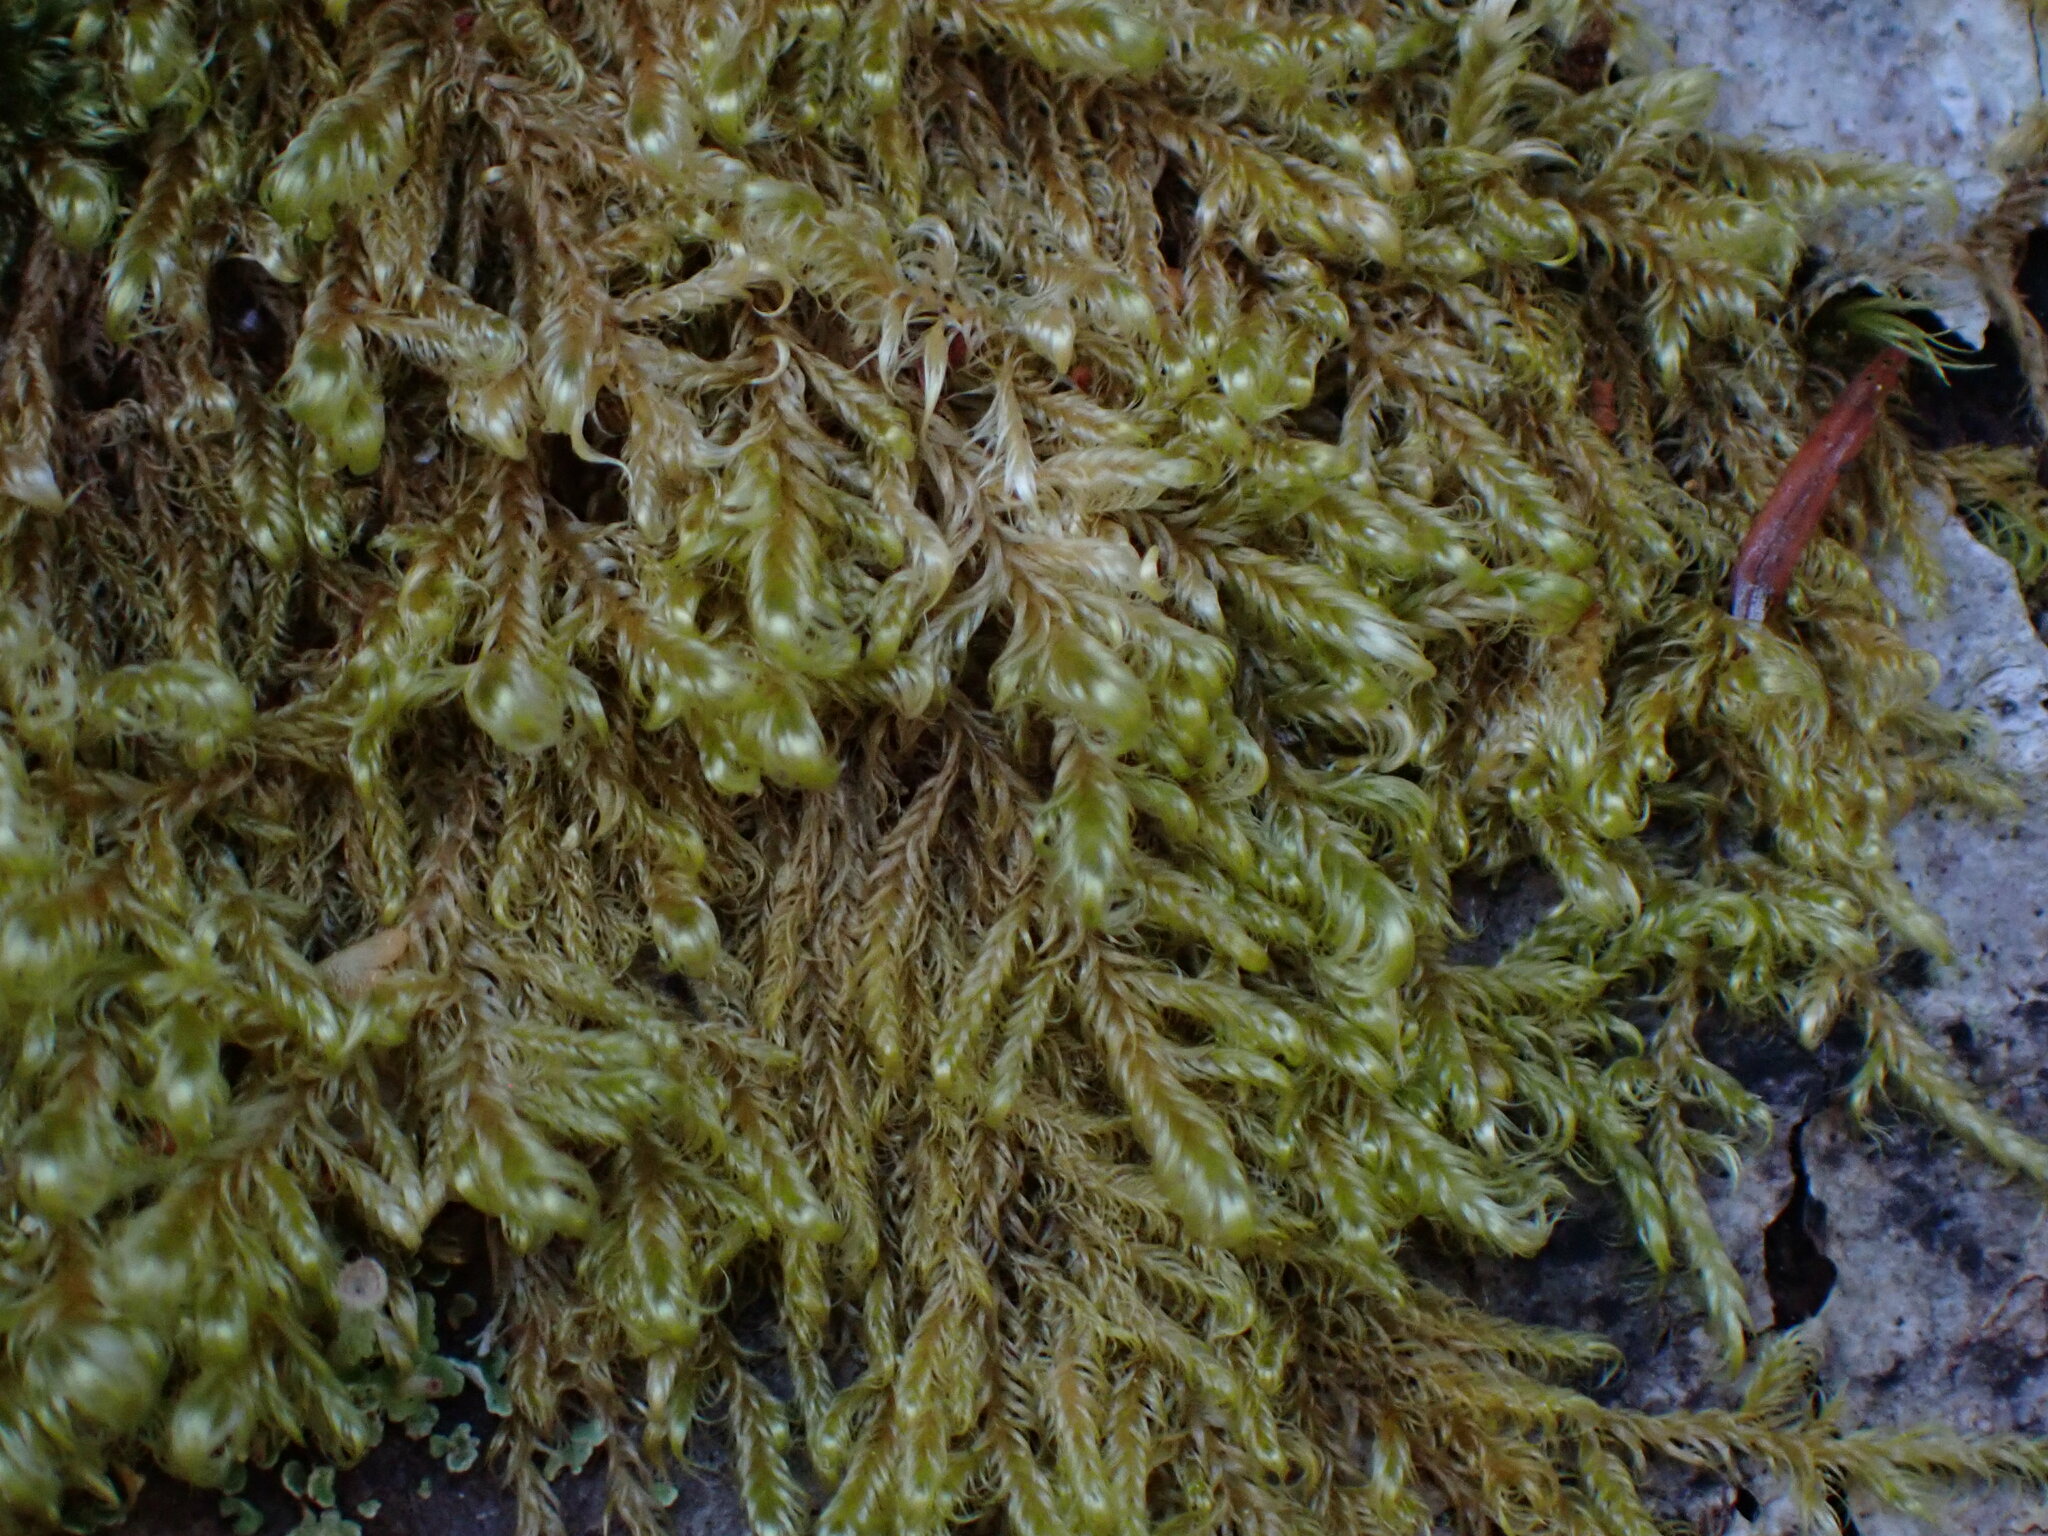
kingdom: Plantae
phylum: Bryophyta
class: Bryopsida
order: Hypnales
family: Scorpidiaceae
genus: Sanionia
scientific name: Sanionia uncinata
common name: Sickle moss
